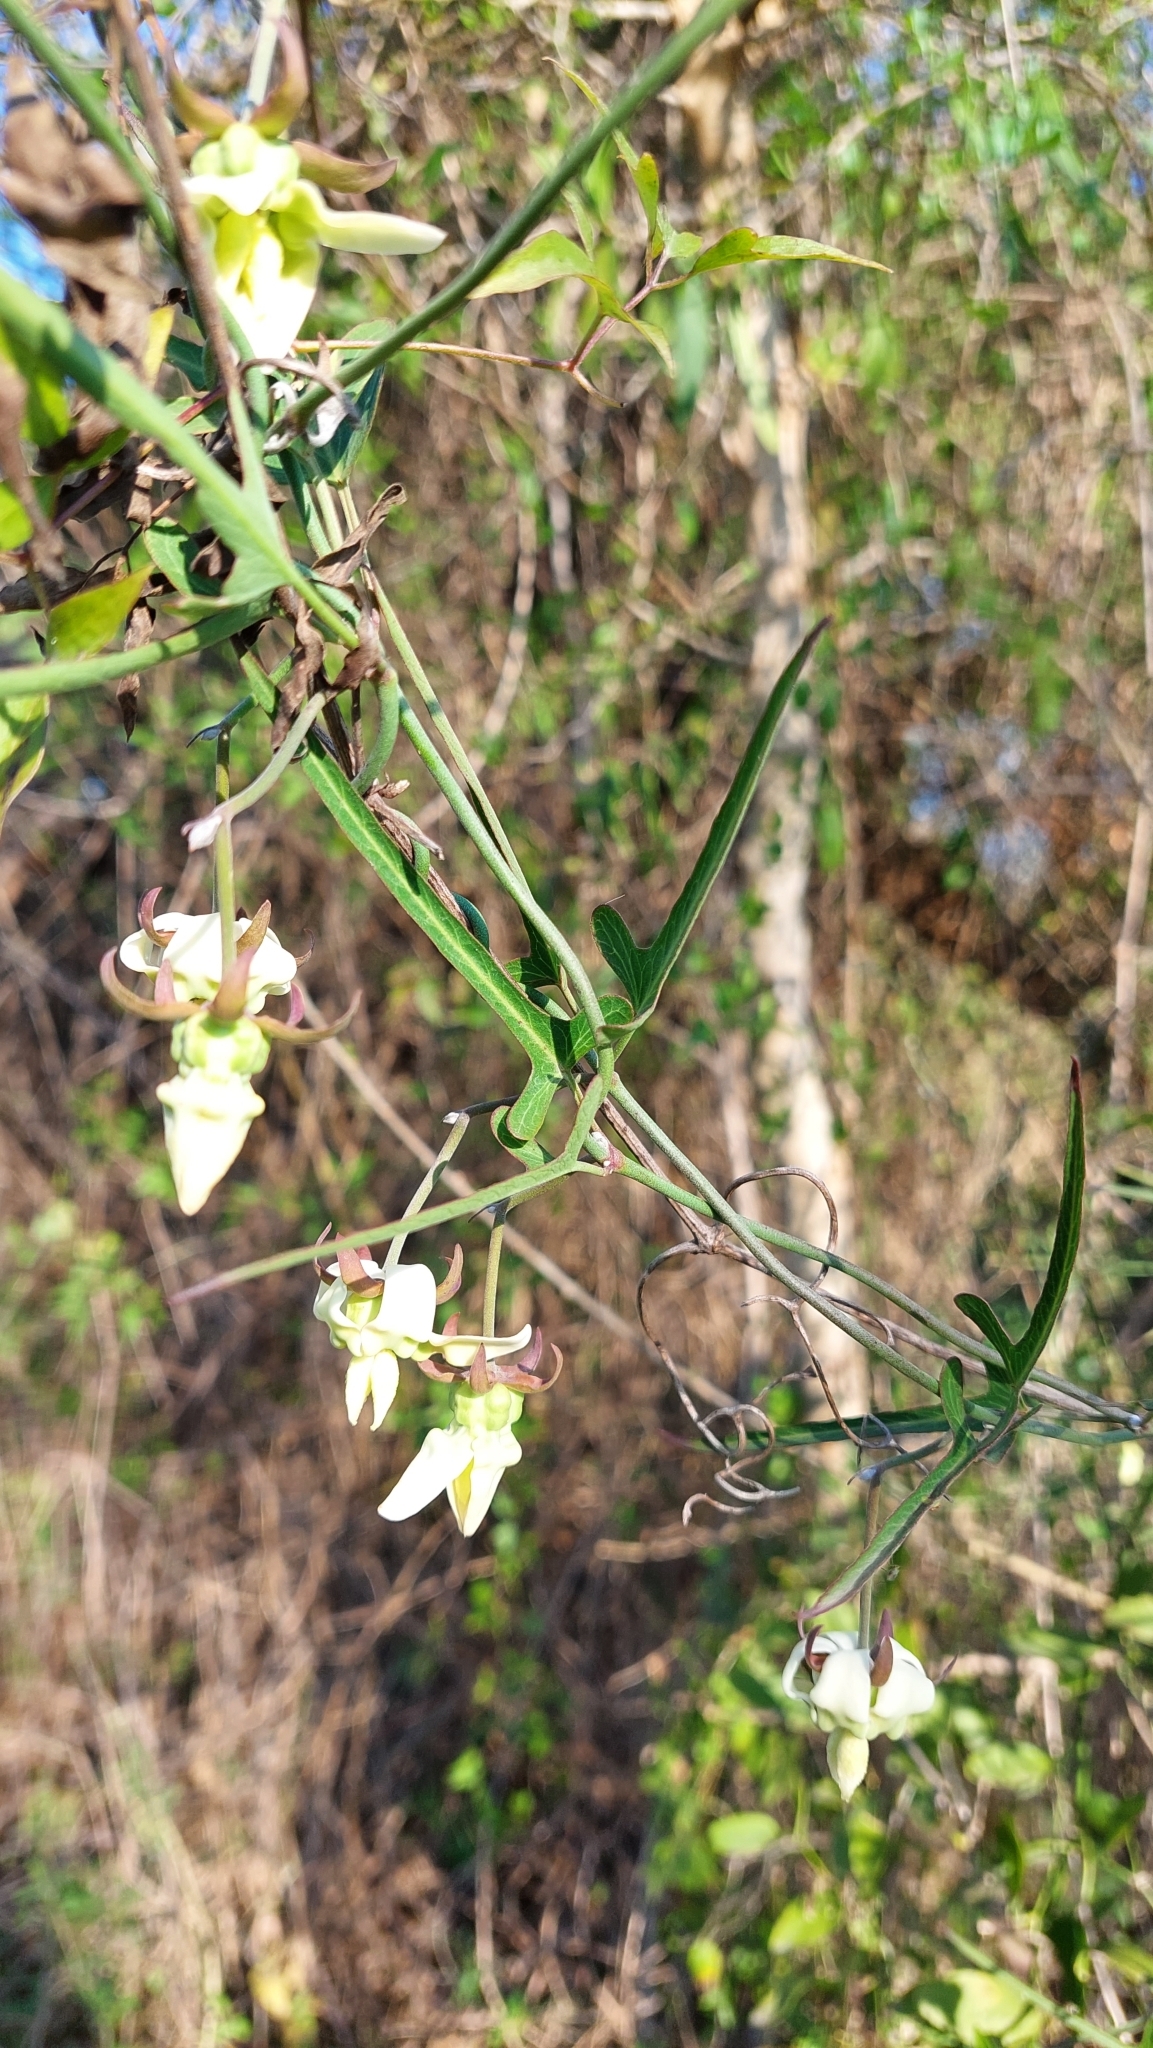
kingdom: Plantae
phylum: Tracheophyta
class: Magnoliopsida
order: Gentianales
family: Apocynaceae
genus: Araujia
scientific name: Araujia angustifolia
